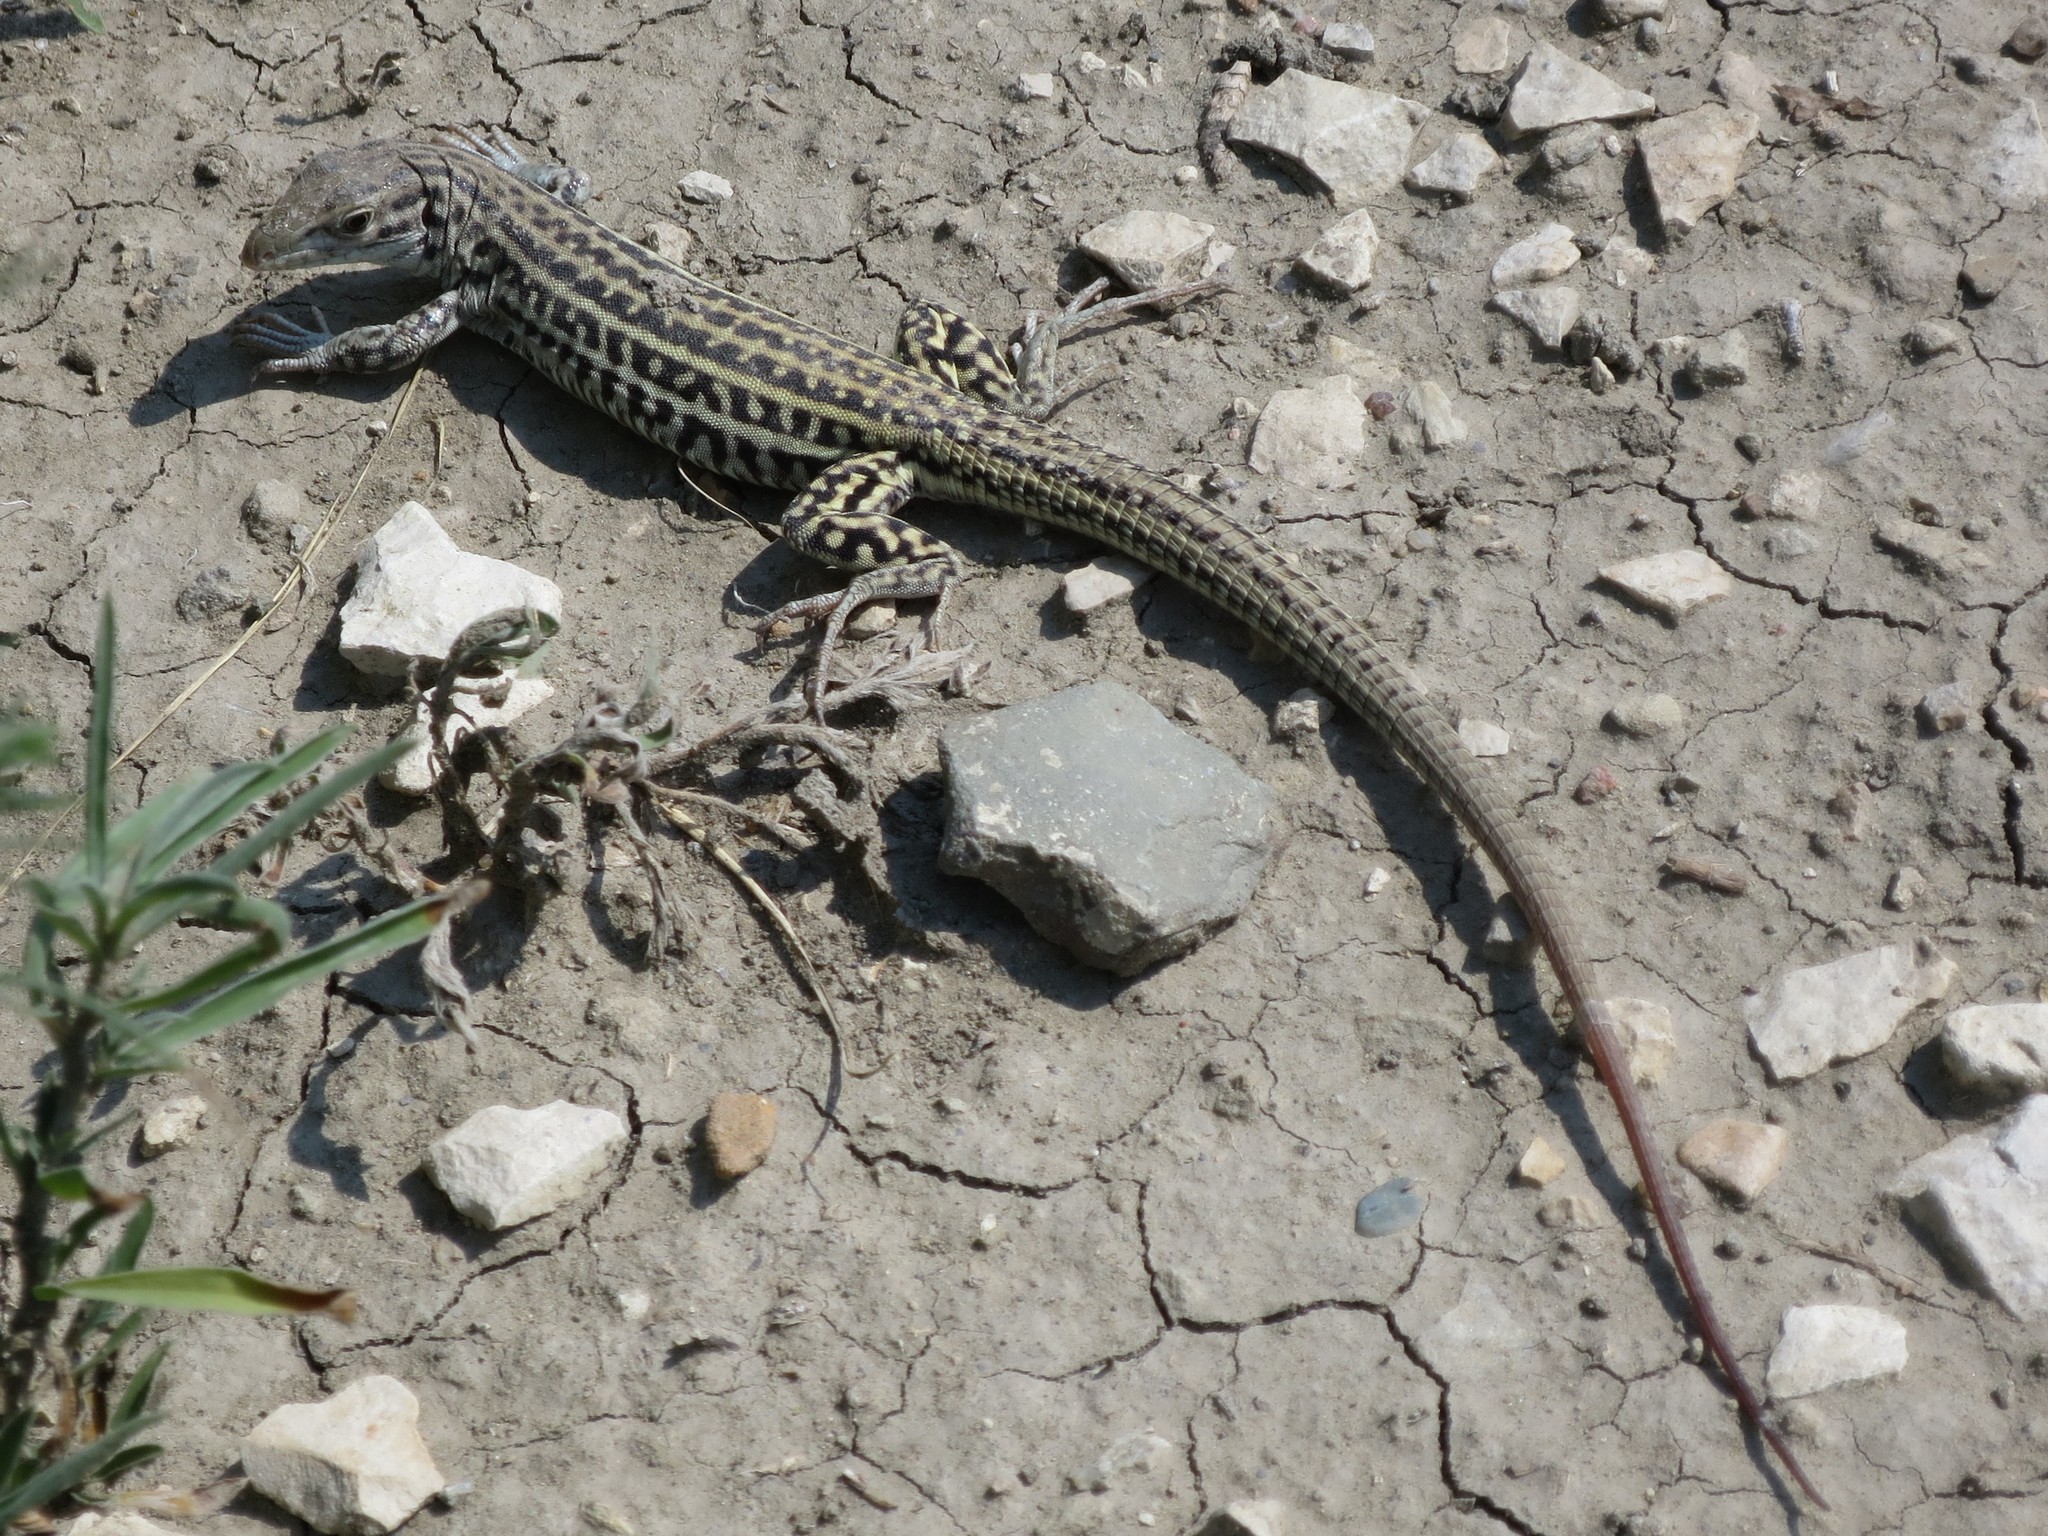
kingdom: Animalia
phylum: Chordata
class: Squamata
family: Teiidae
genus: Aspidoscelis
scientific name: Aspidoscelis neotesselatus
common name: Colorado checkered whiptail
